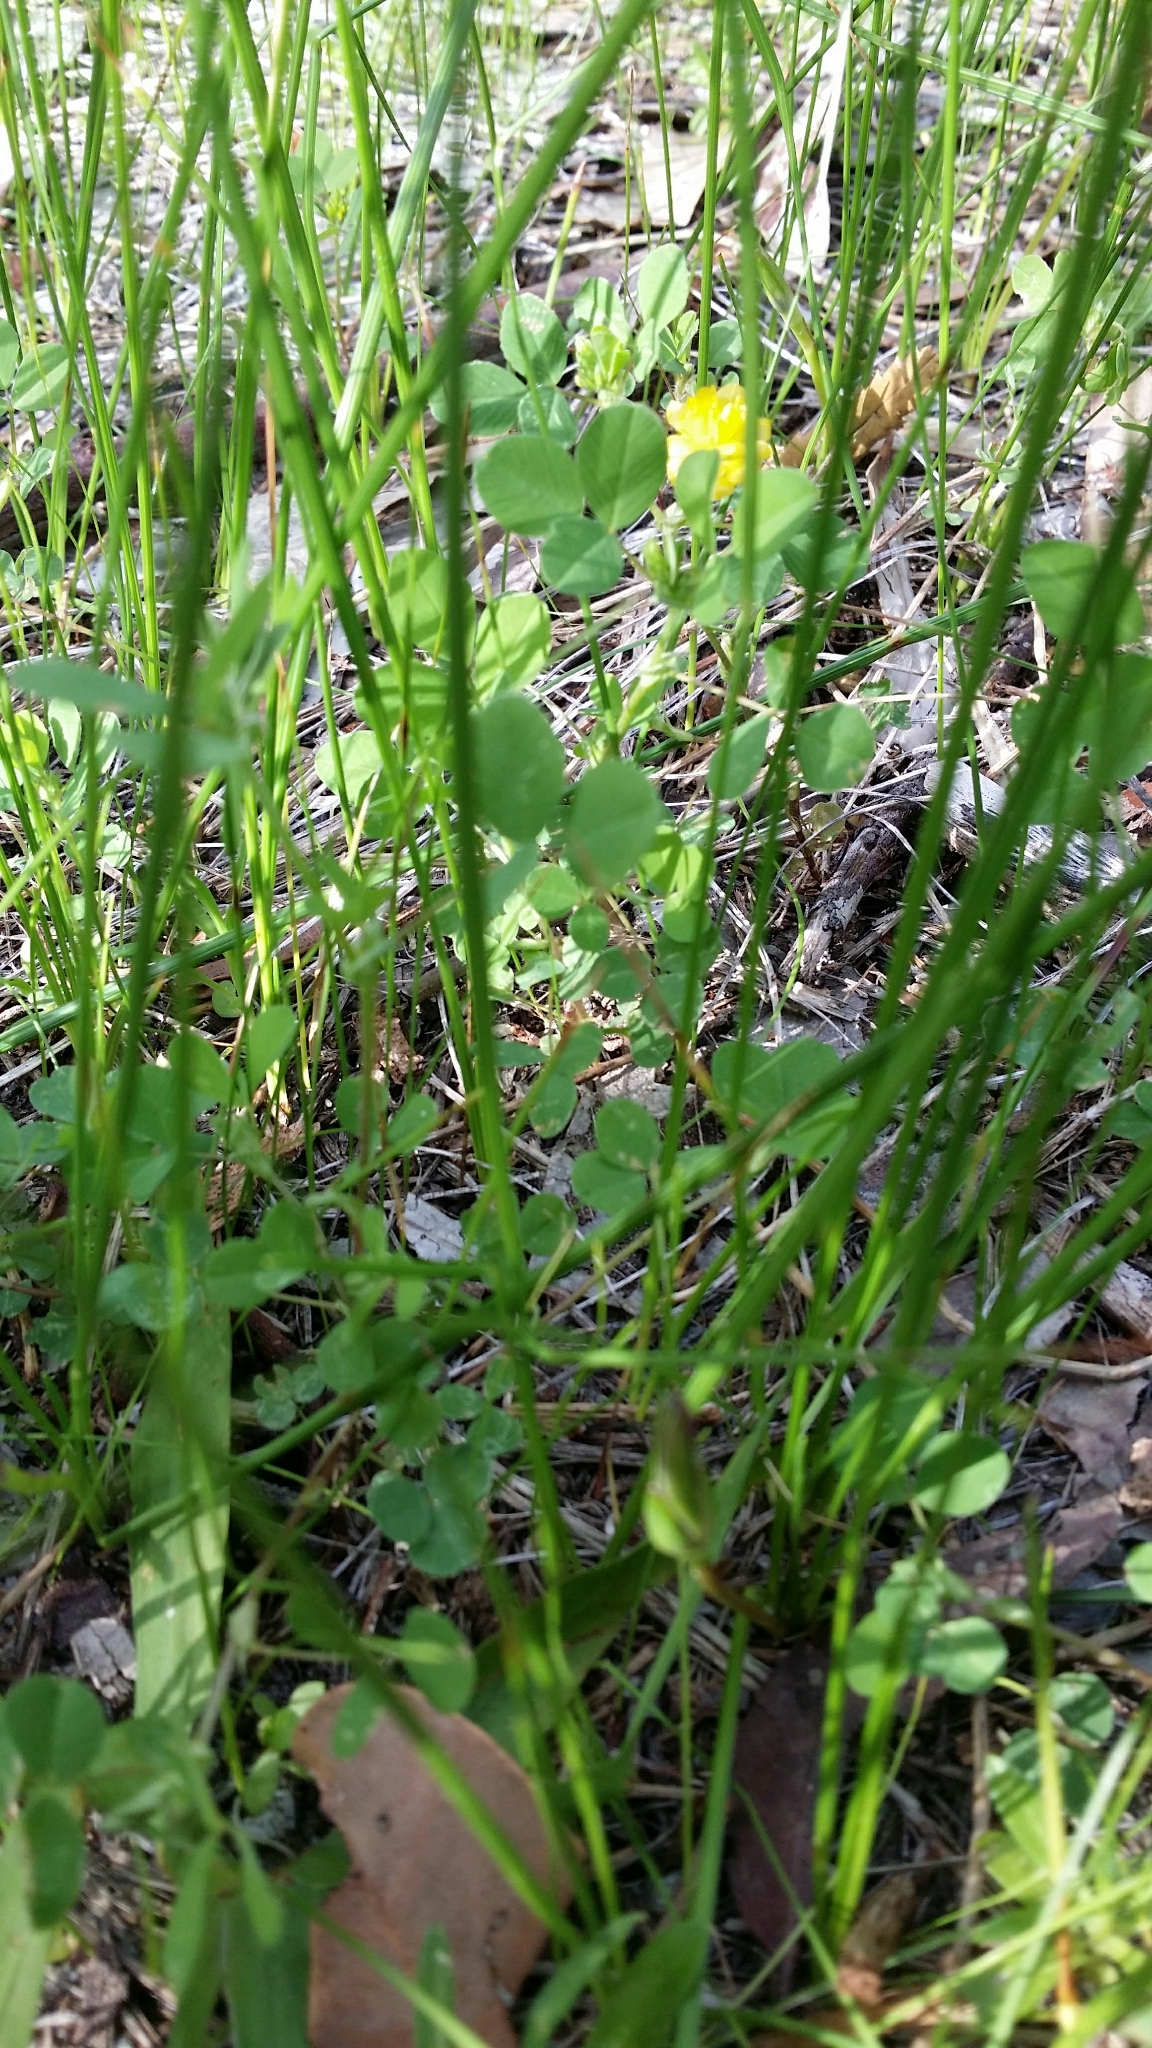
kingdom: Plantae
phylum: Tracheophyta
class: Magnoliopsida
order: Fabales
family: Fabaceae
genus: Trifolium
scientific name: Trifolium campestre
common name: Field clover
